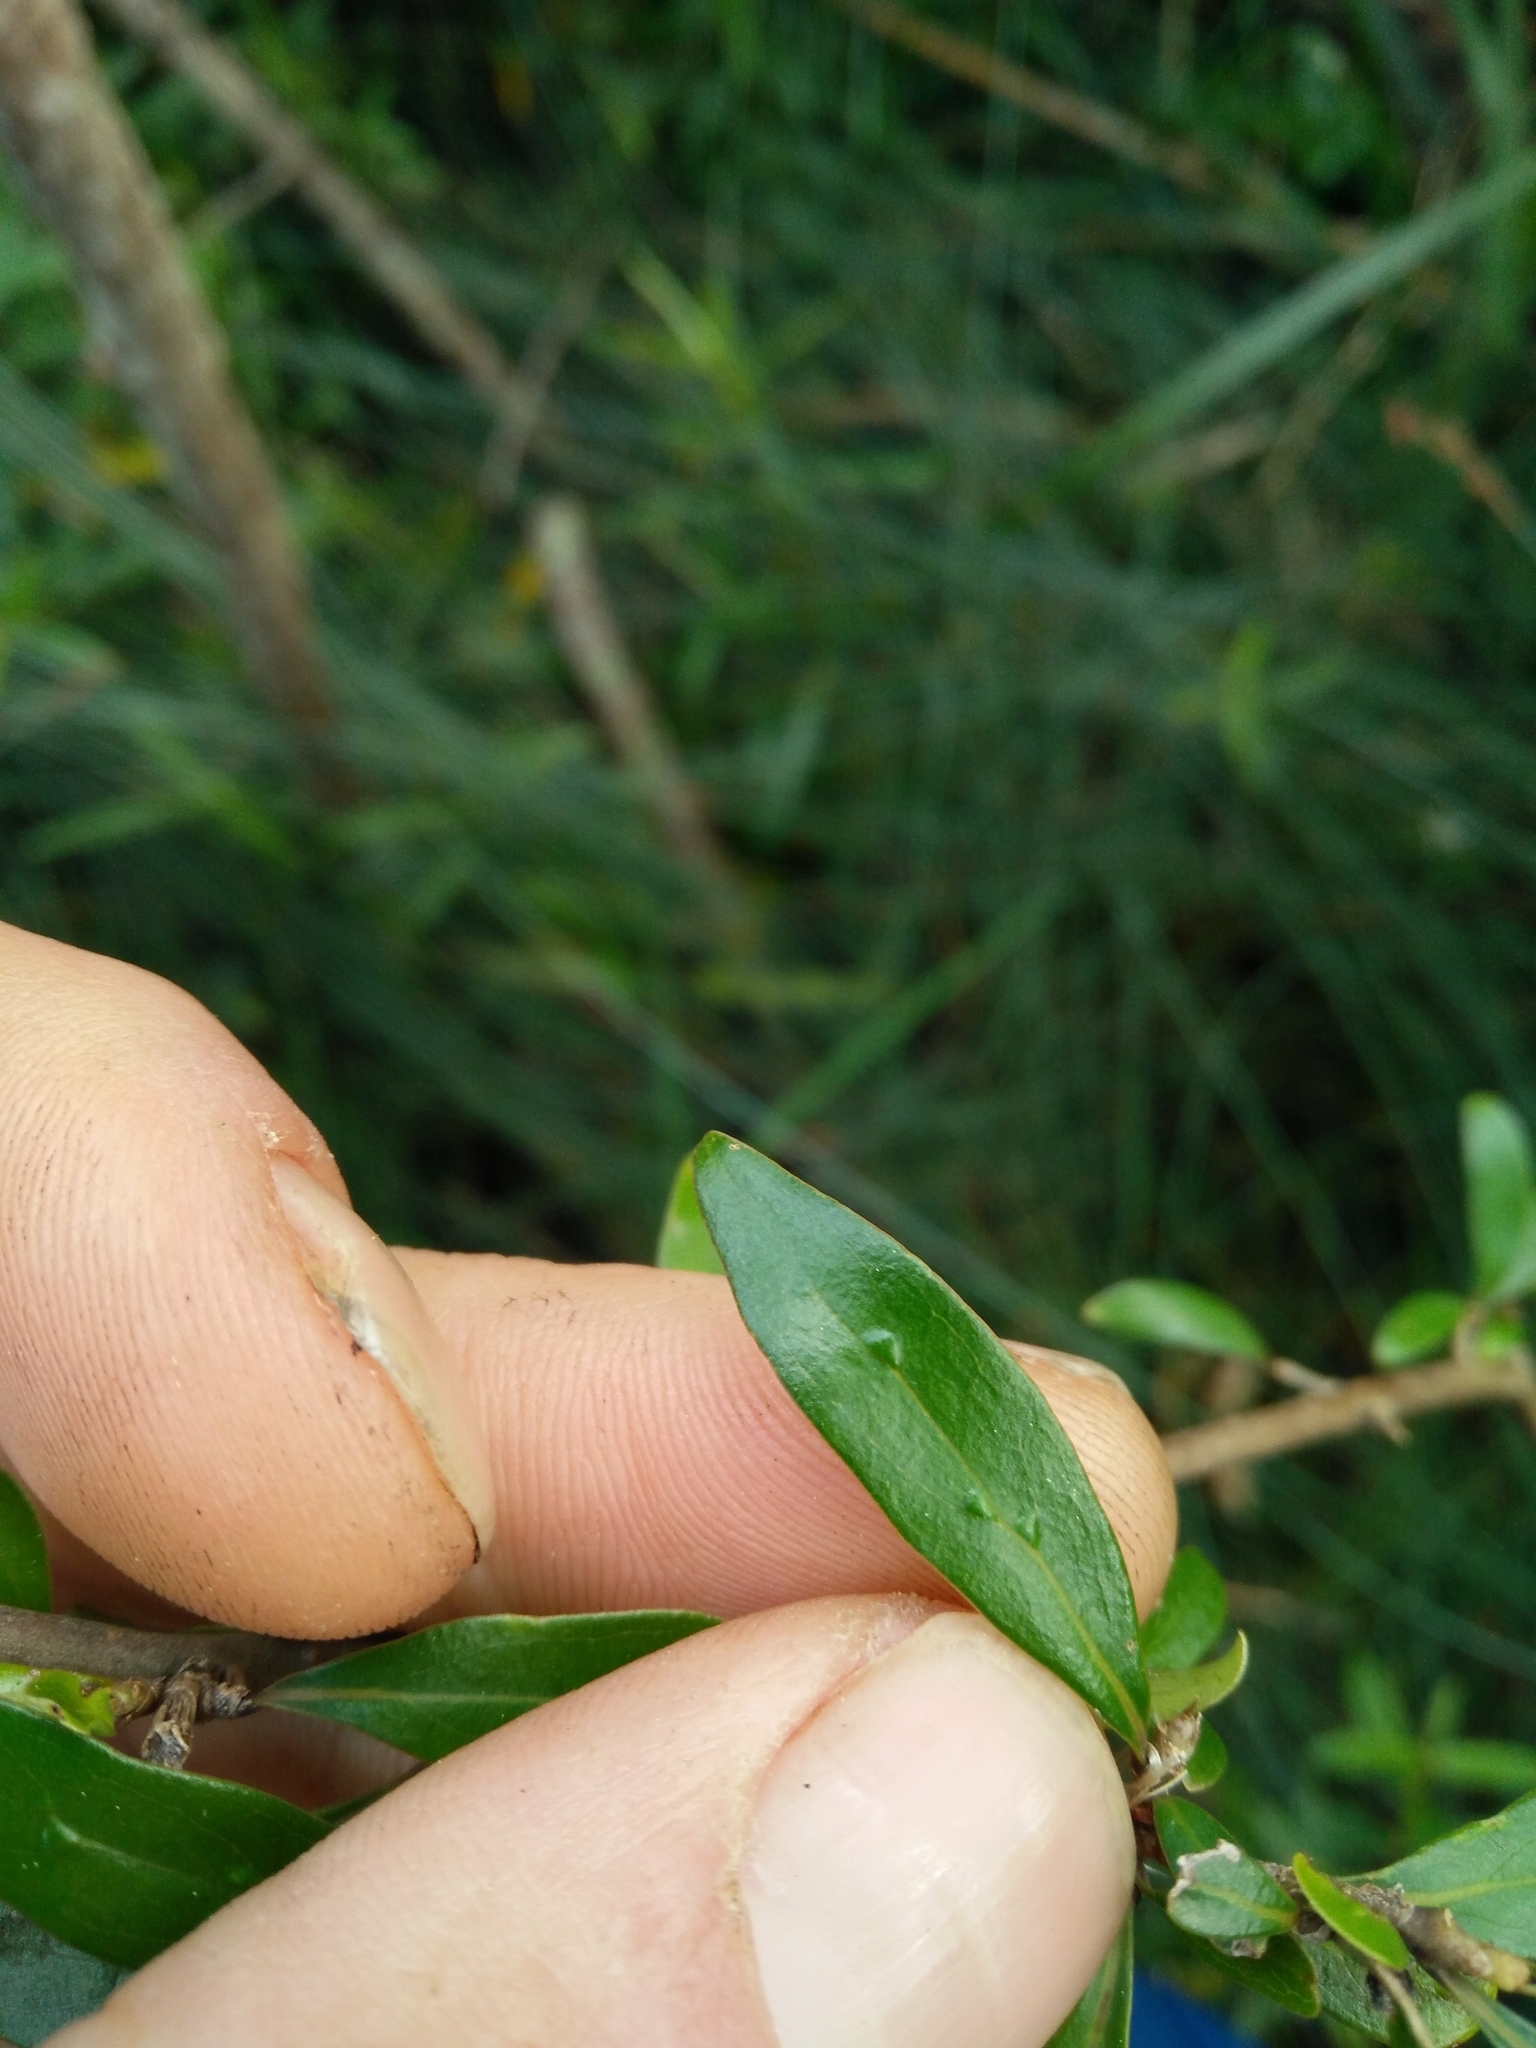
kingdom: Plantae
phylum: Tracheophyta
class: Magnoliopsida
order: Gentianales
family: Rubiaceae
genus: Coprosma
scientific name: Coprosma cunninghamii
